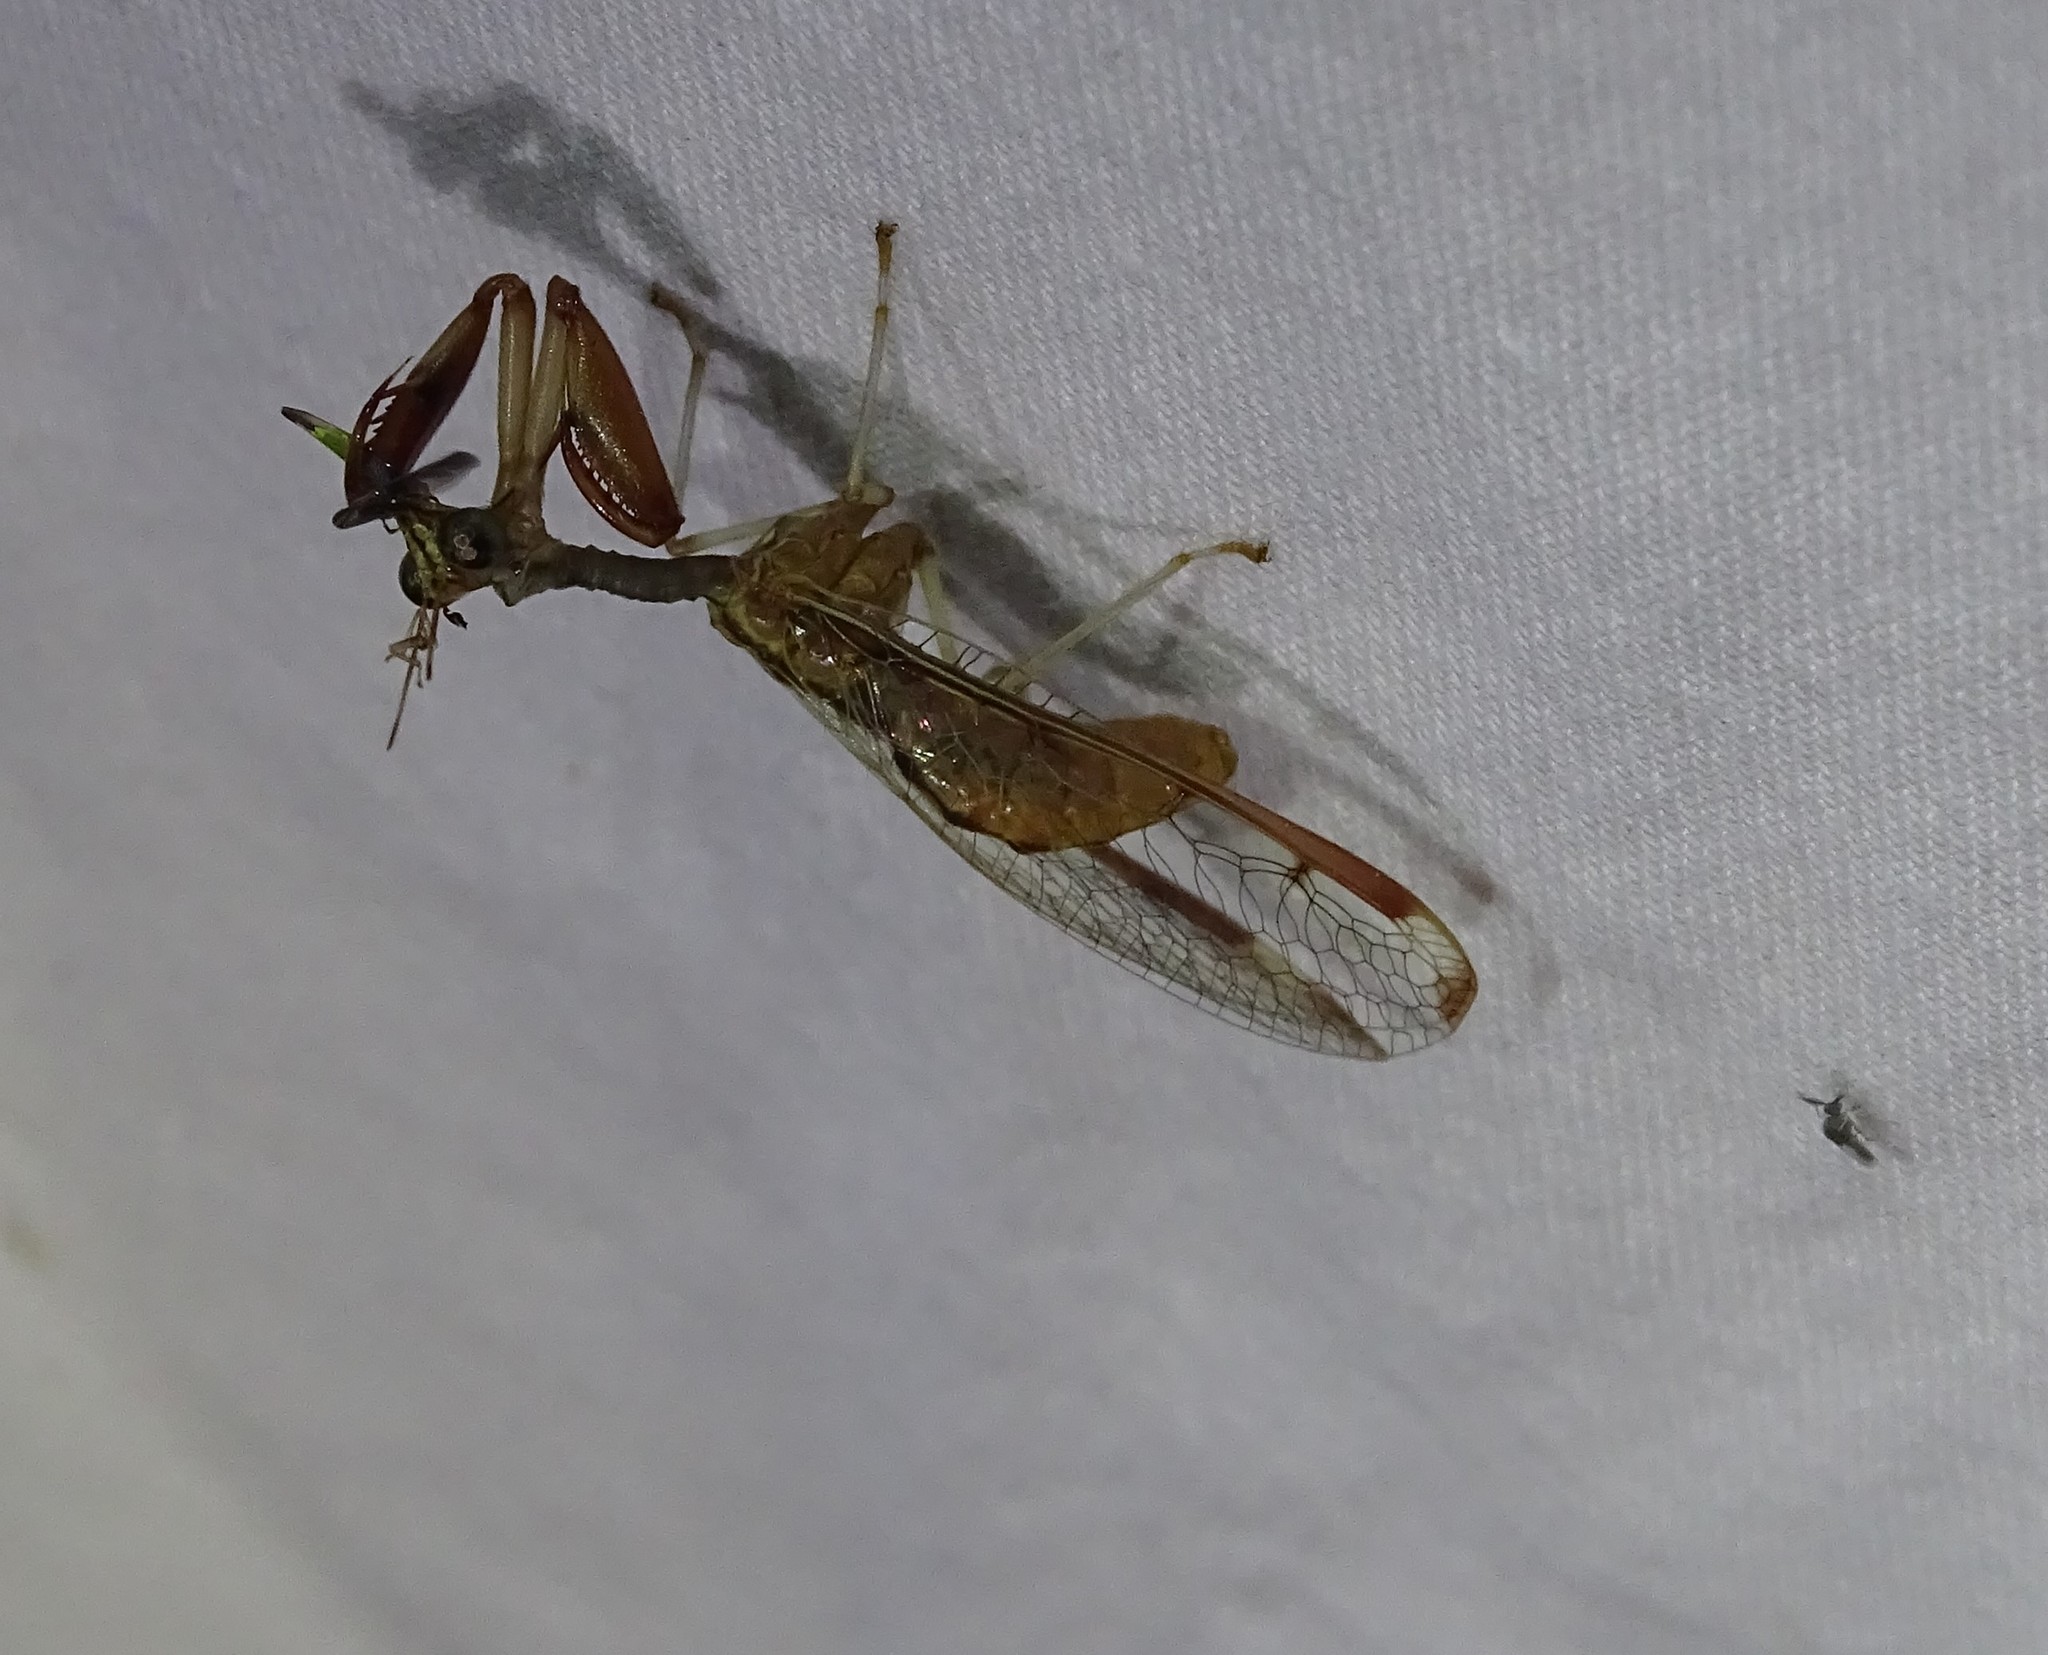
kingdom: Animalia
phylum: Arthropoda
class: Insecta
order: Neuroptera
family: Mantispidae
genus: Dicromantispa
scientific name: Dicromantispa interrupta
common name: Four-spotted mantidfly
